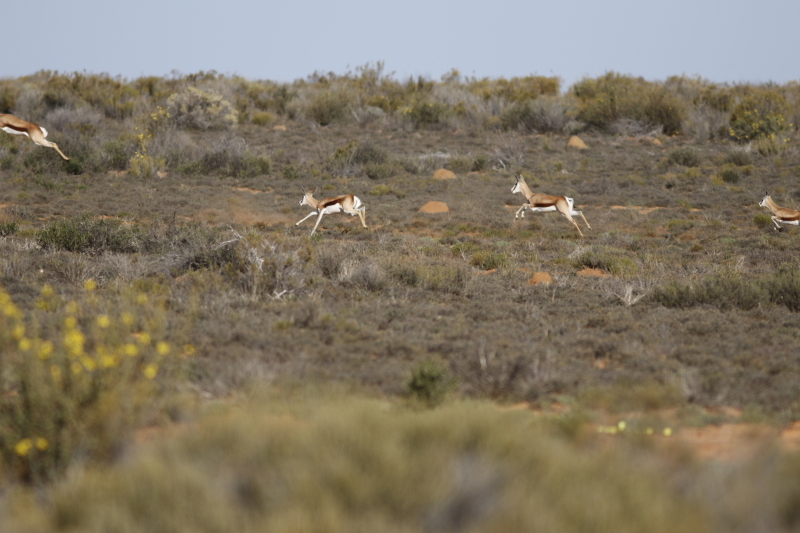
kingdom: Animalia
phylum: Chordata
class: Mammalia
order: Artiodactyla
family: Bovidae
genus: Antidorcas
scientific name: Antidorcas marsupialis
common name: Springbok
